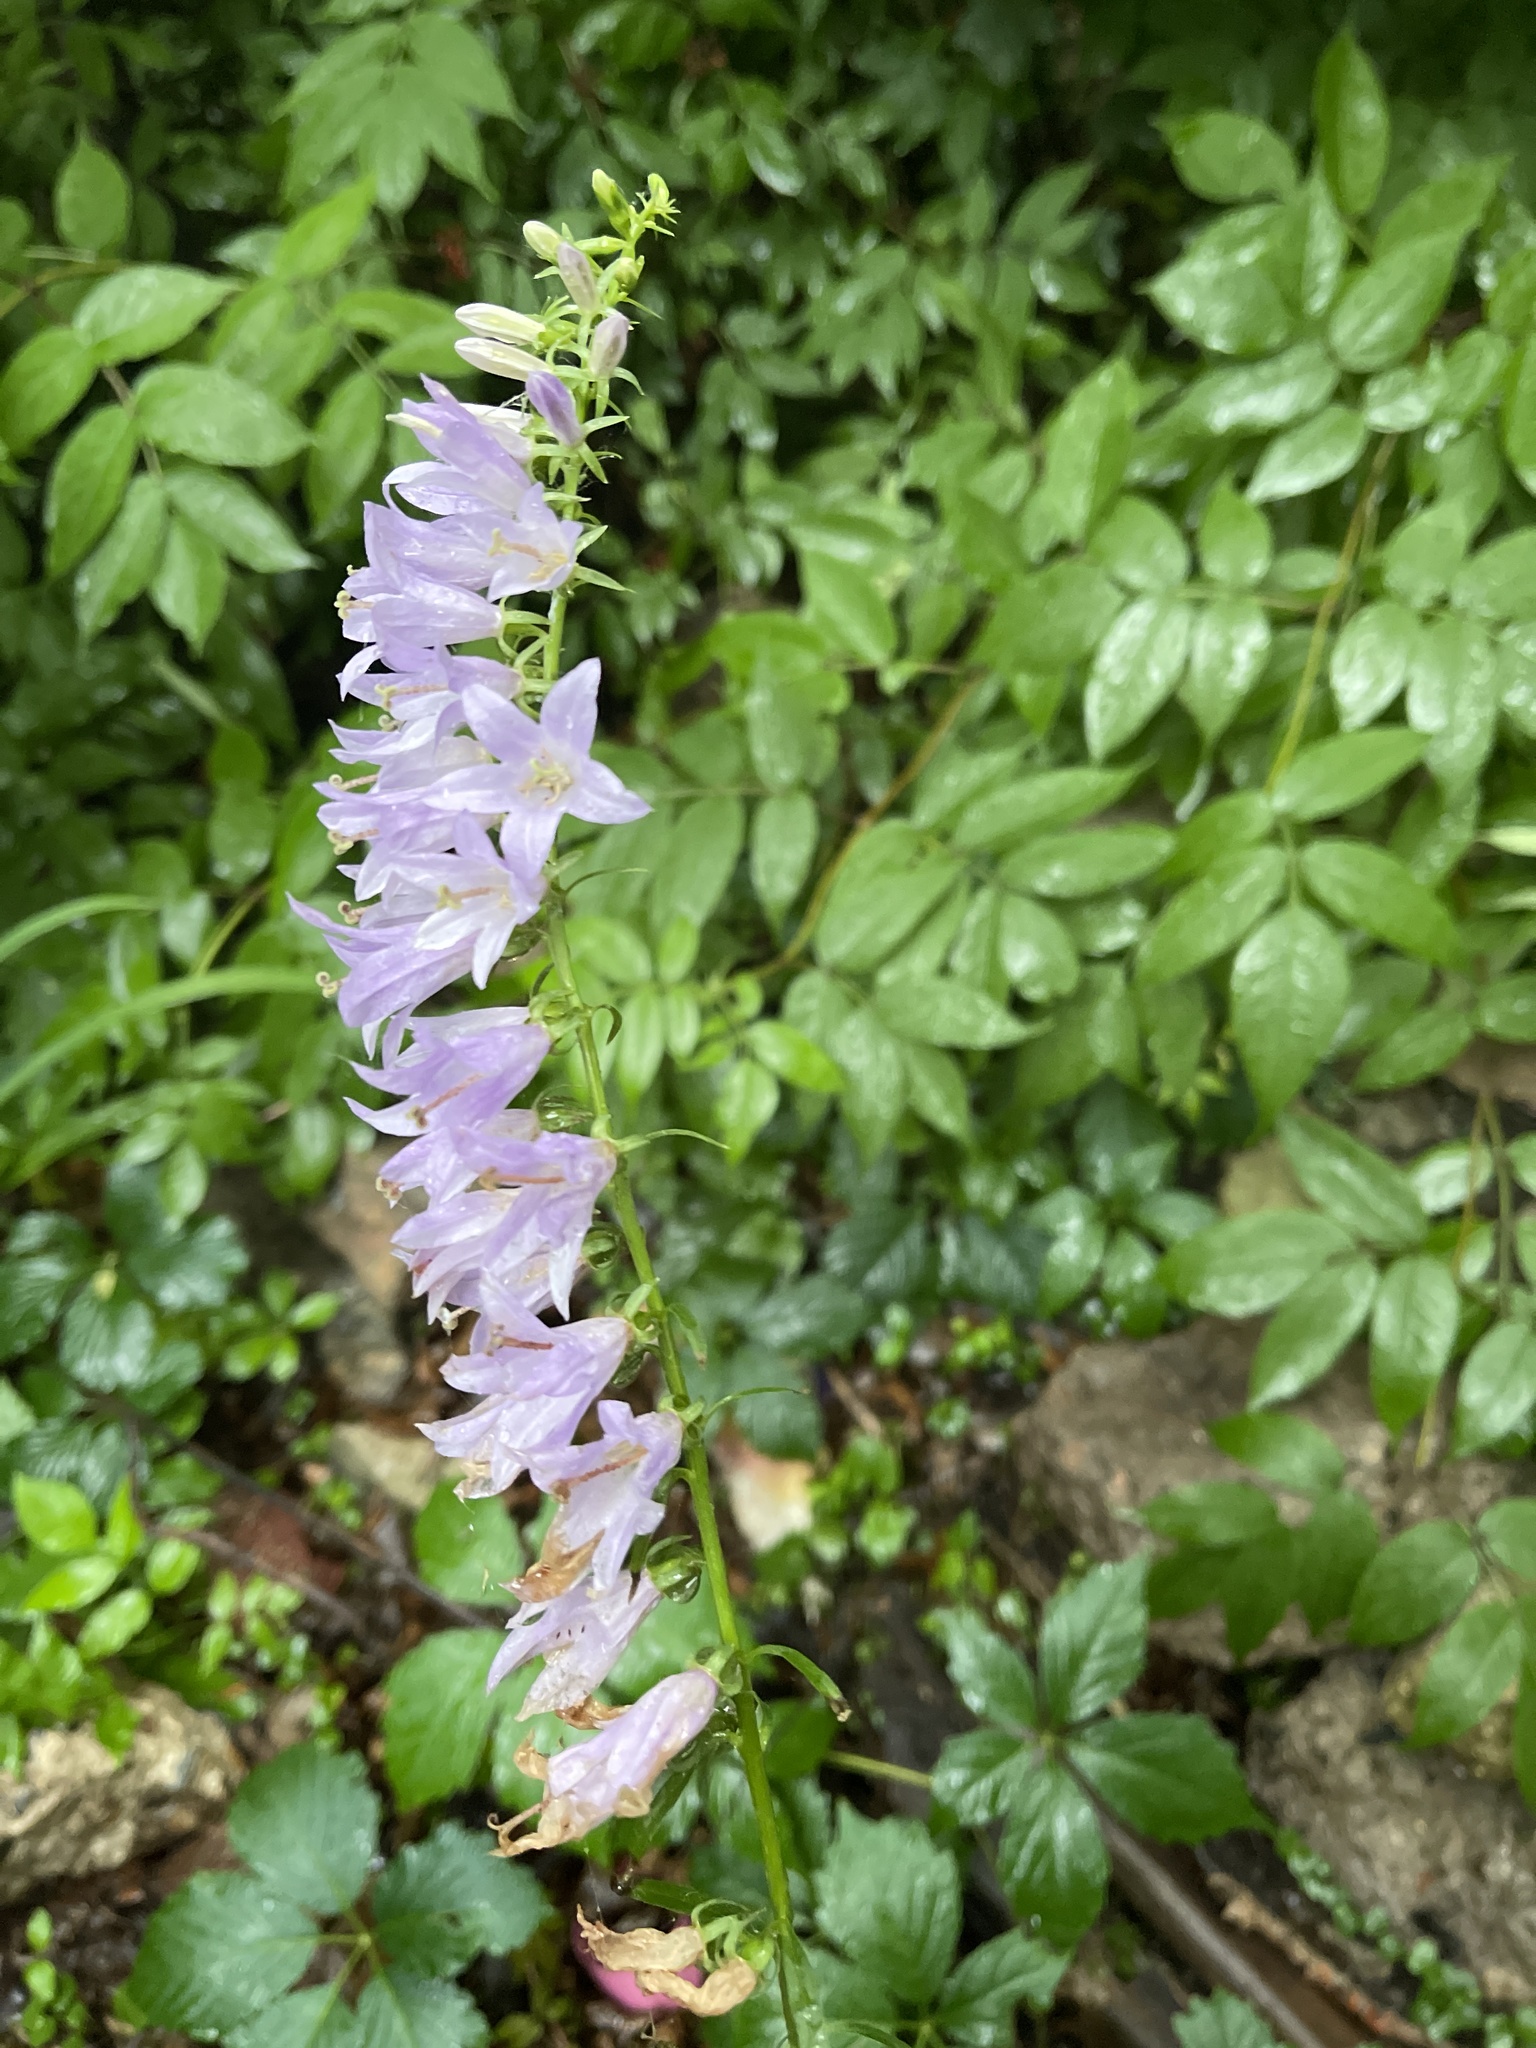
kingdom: Plantae
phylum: Tracheophyta
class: Magnoliopsida
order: Asterales
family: Campanulaceae
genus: Campanula
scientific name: Campanula rapunculoides
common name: Creeping bellflower
